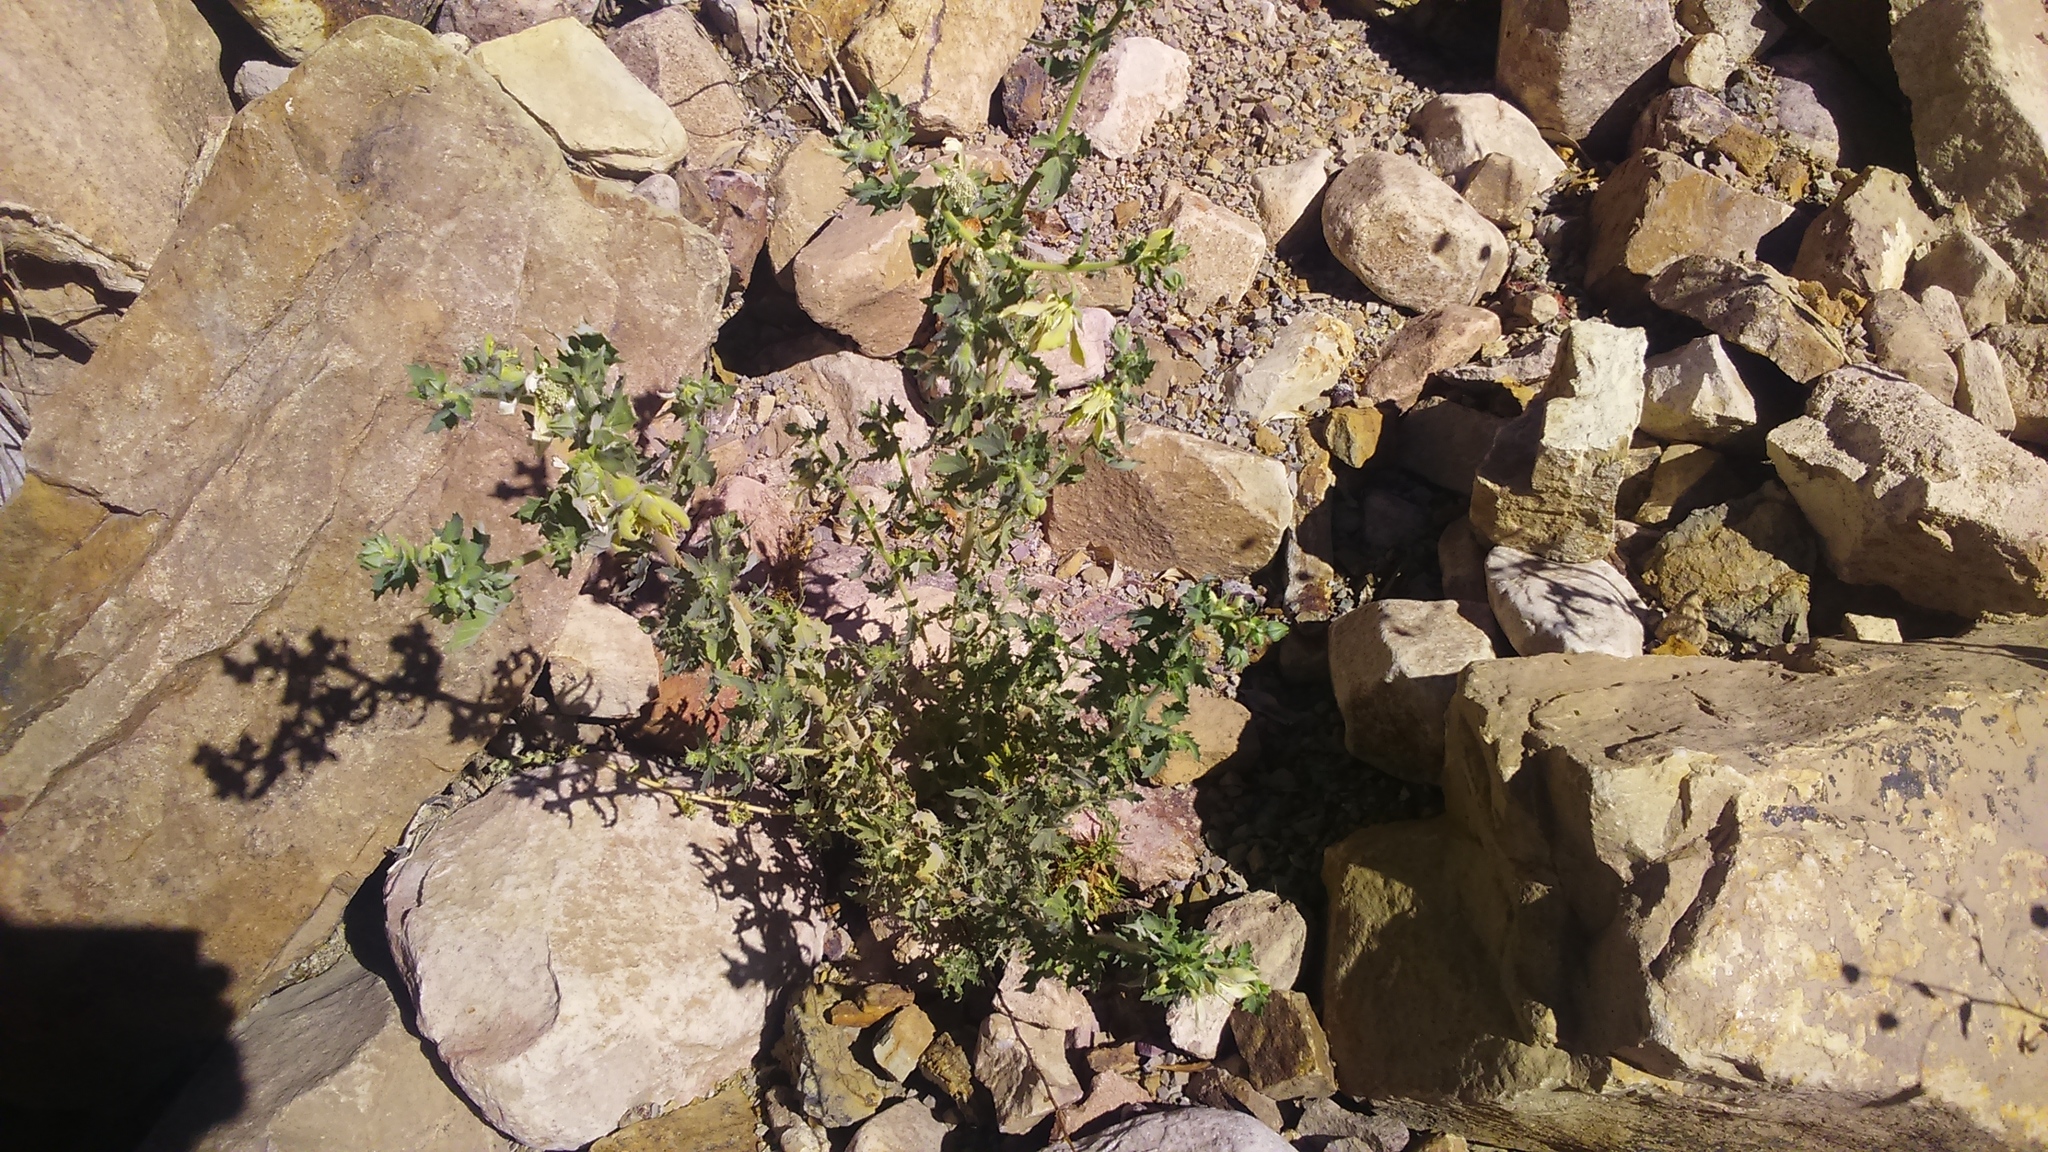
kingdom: Plantae
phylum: Tracheophyta
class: Magnoliopsida
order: Cornales
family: Loasaceae
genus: Presliophytum
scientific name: Presliophytum incanum
